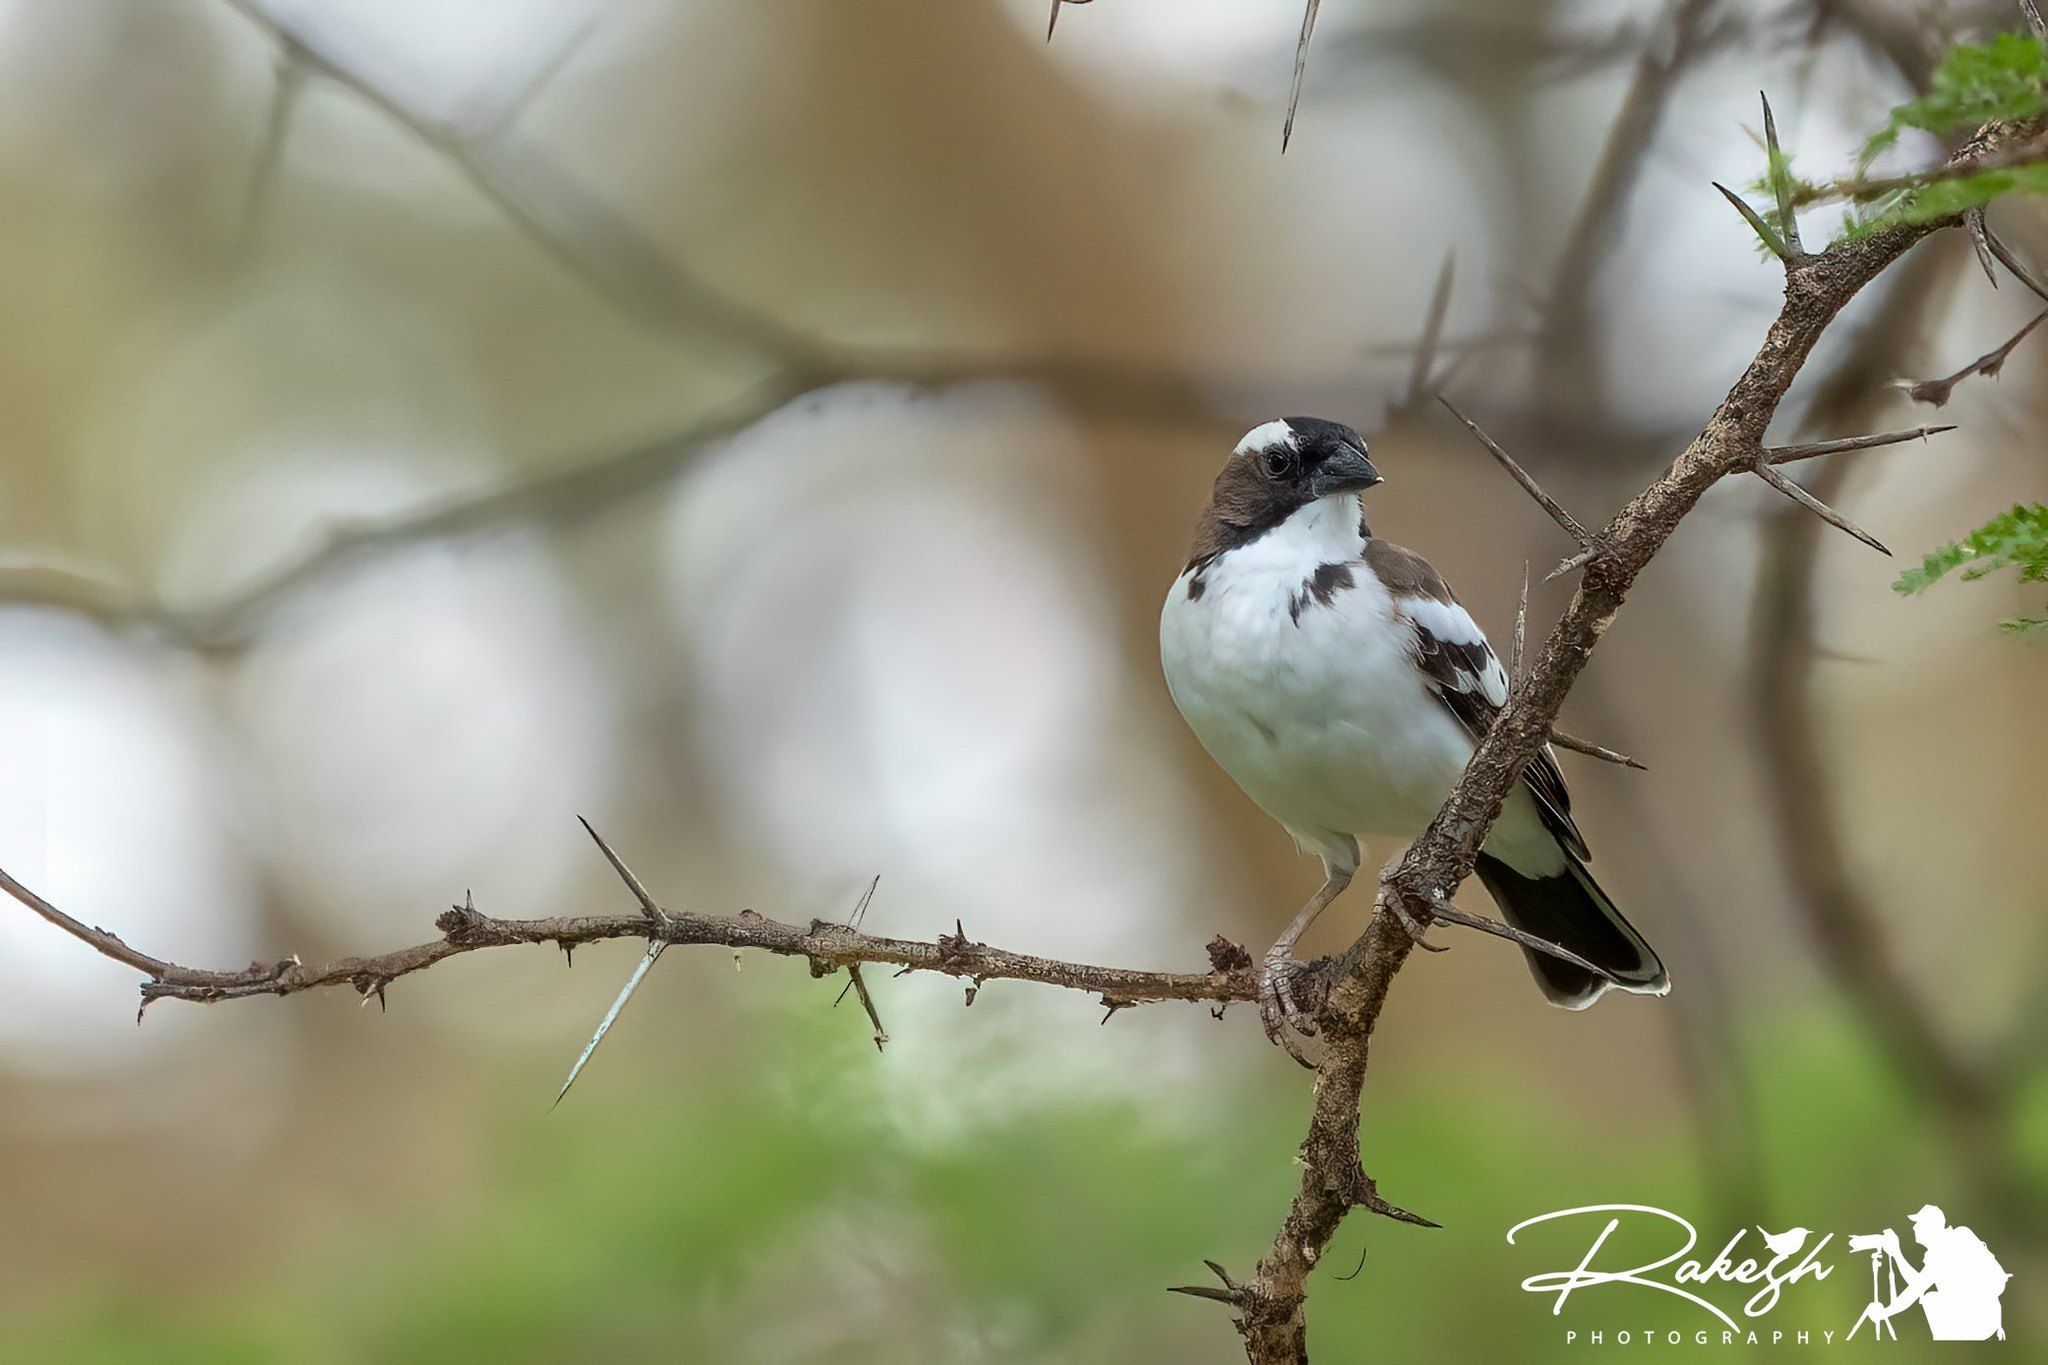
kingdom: Animalia
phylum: Chordata
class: Aves
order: Passeriformes
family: Passeridae
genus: Plocepasser
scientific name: Plocepasser mahali
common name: White-browed sparrow-weaver
